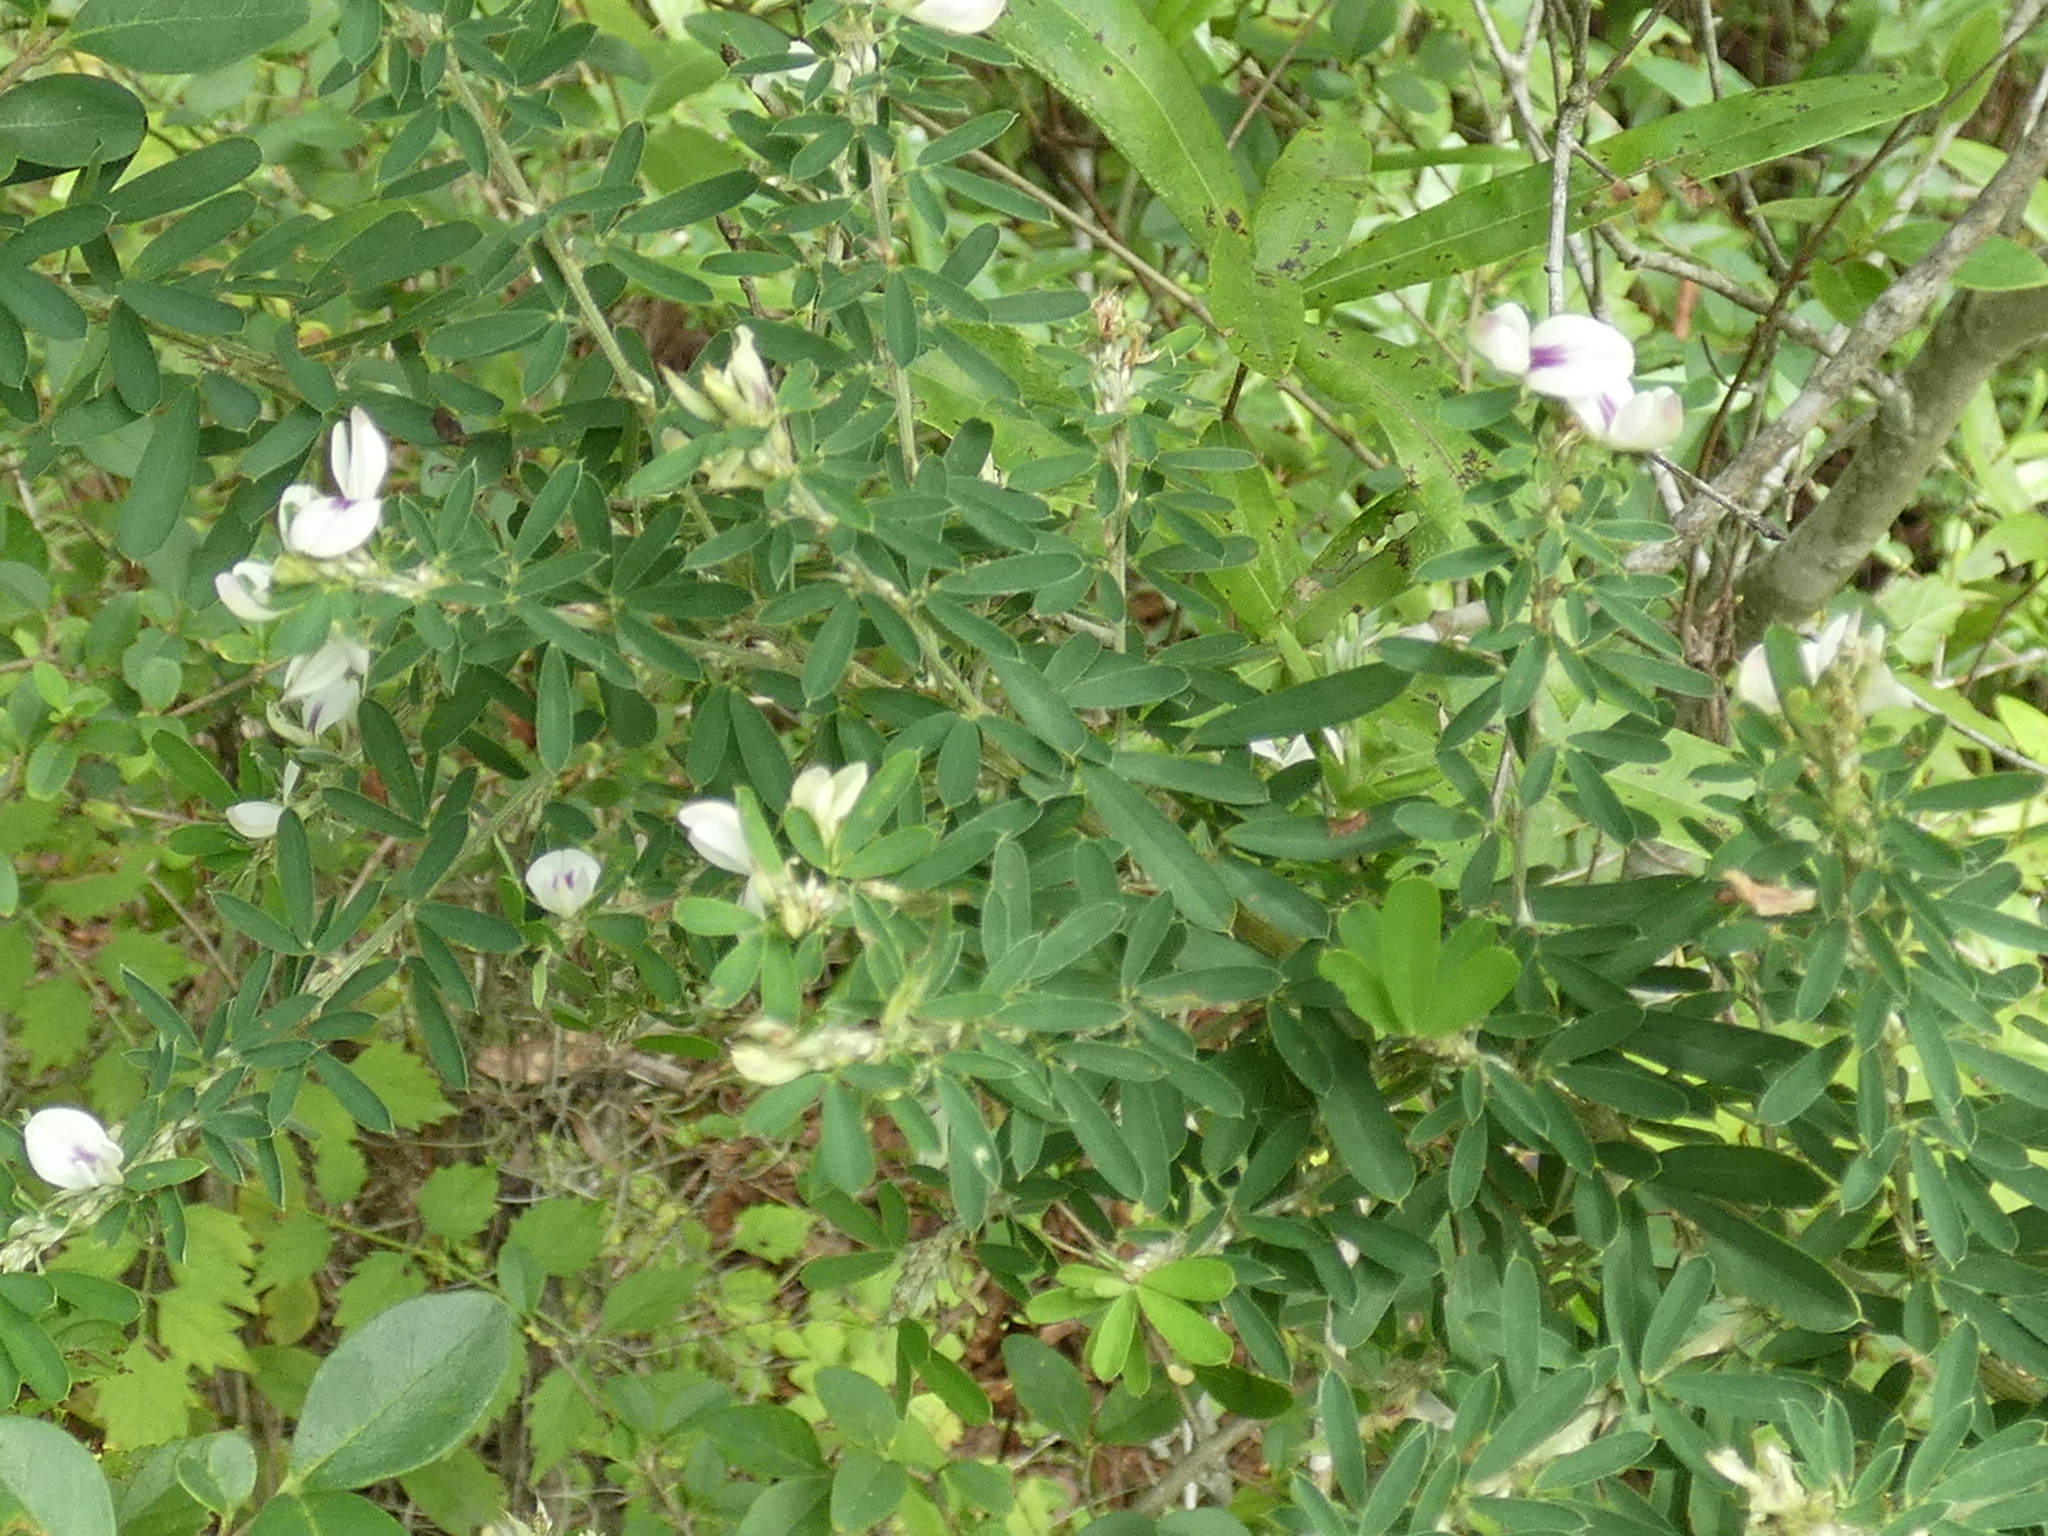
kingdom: Plantae
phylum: Tracheophyta
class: Magnoliopsida
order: Fabales
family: Fabaceae
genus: Lespedeza
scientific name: Lespedeza cuneata
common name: Chinese bush-clover
